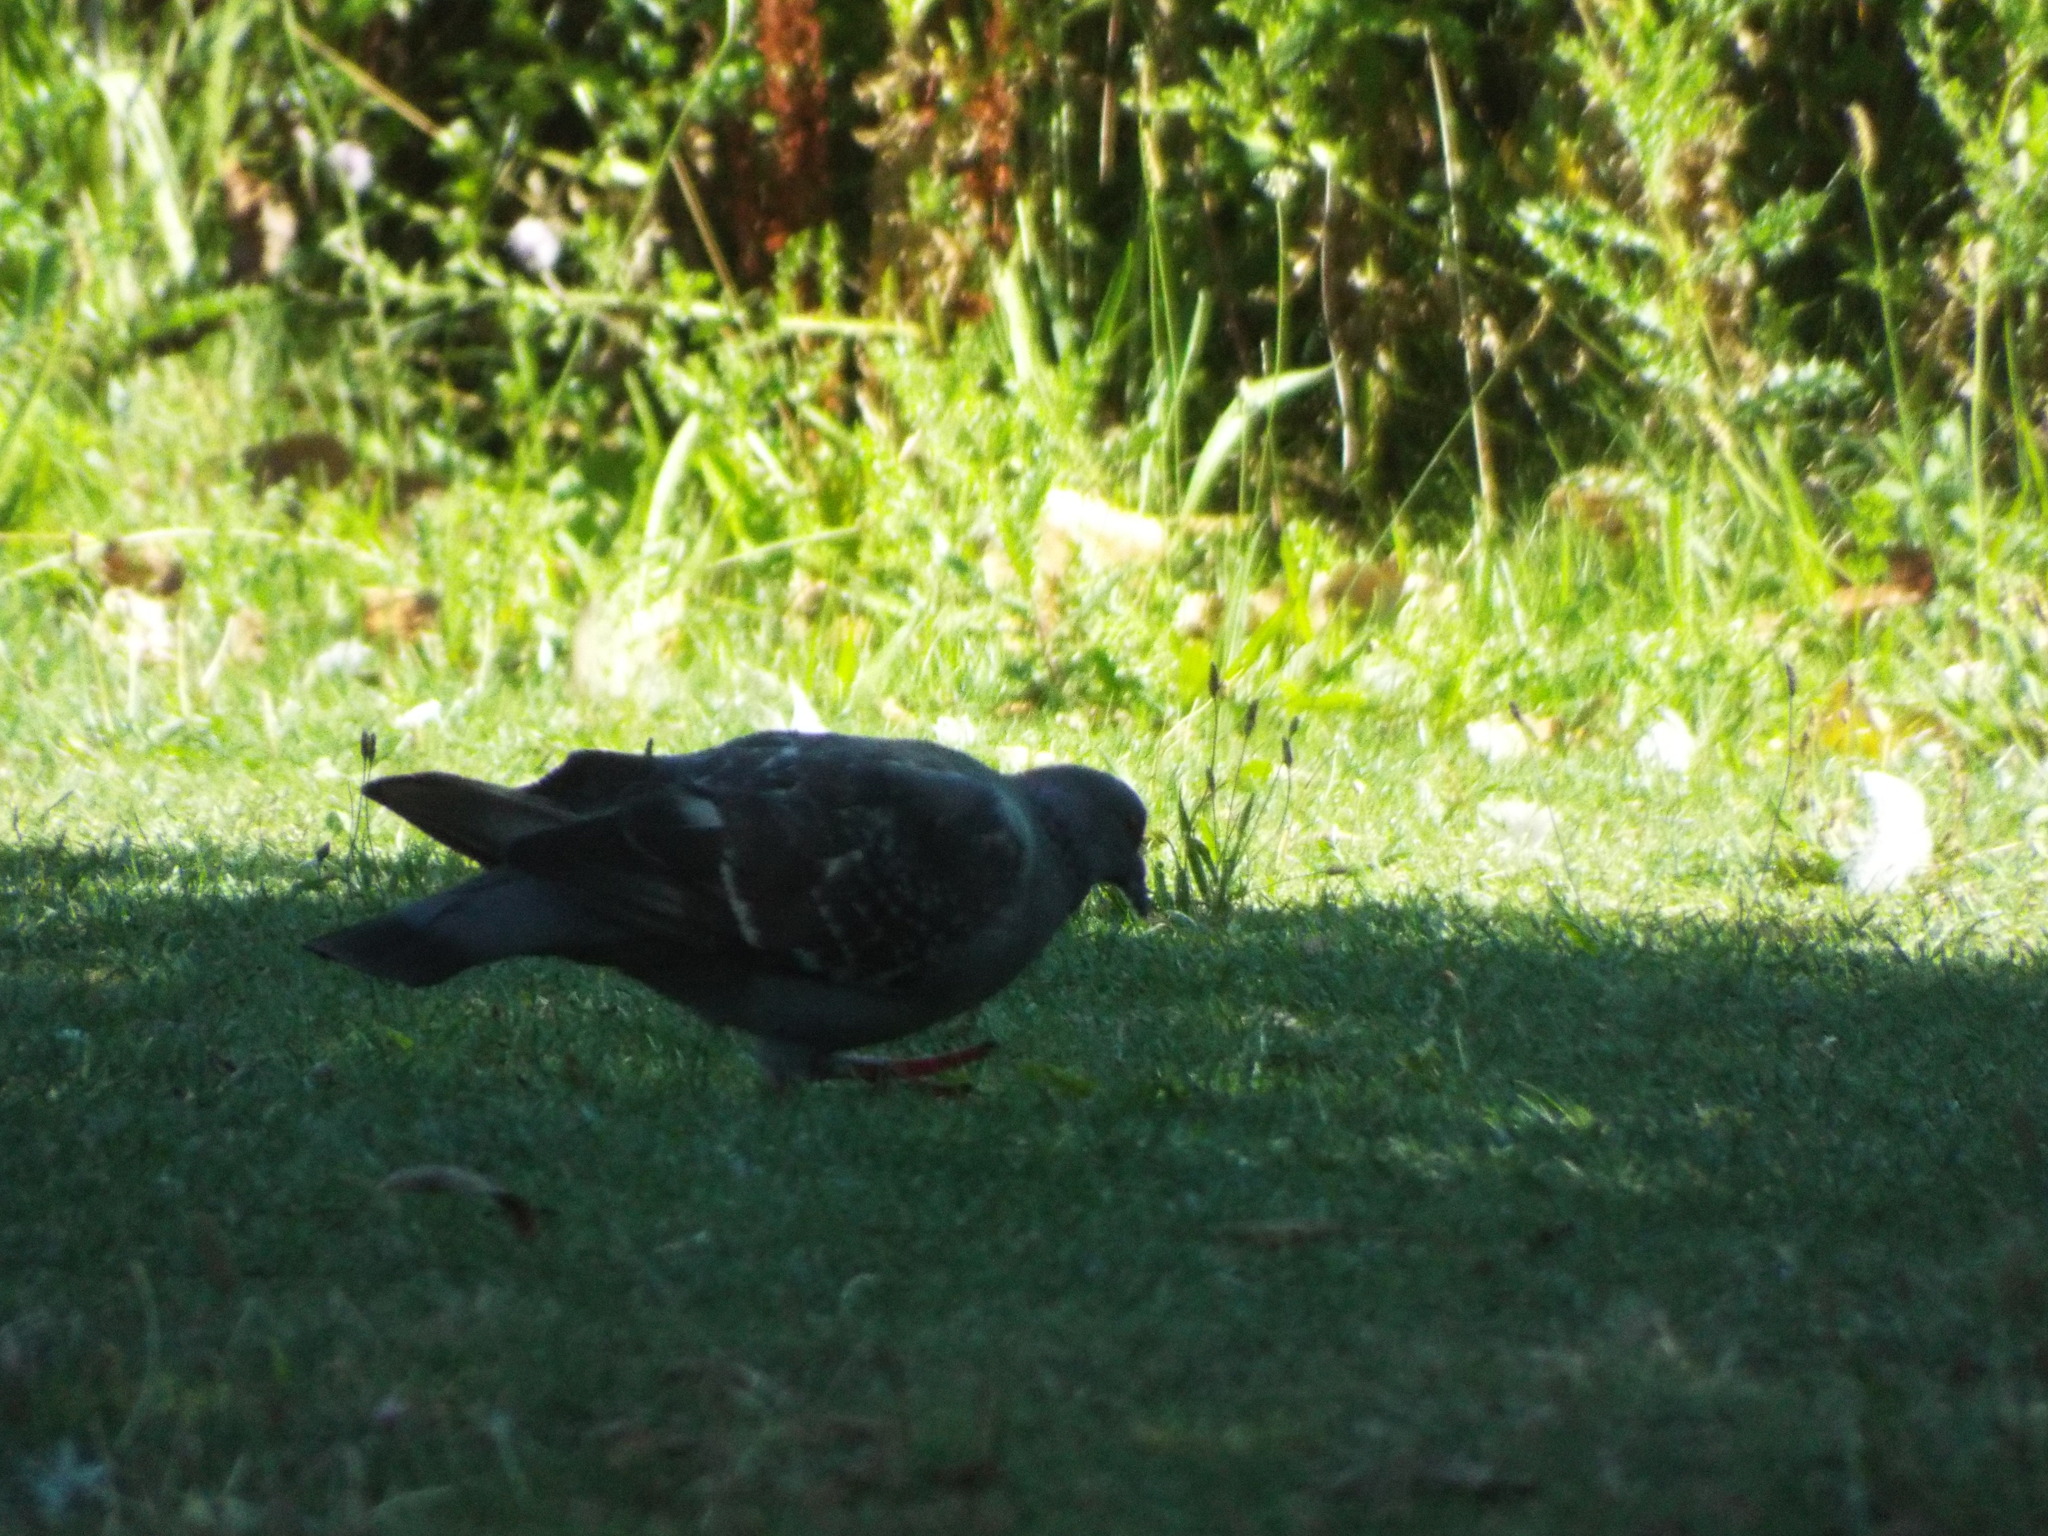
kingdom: Animalia
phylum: Chordata
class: Aves
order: Columbiformes
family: Columbidae
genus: Columba
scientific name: Columba livia
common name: Rock pigeon
